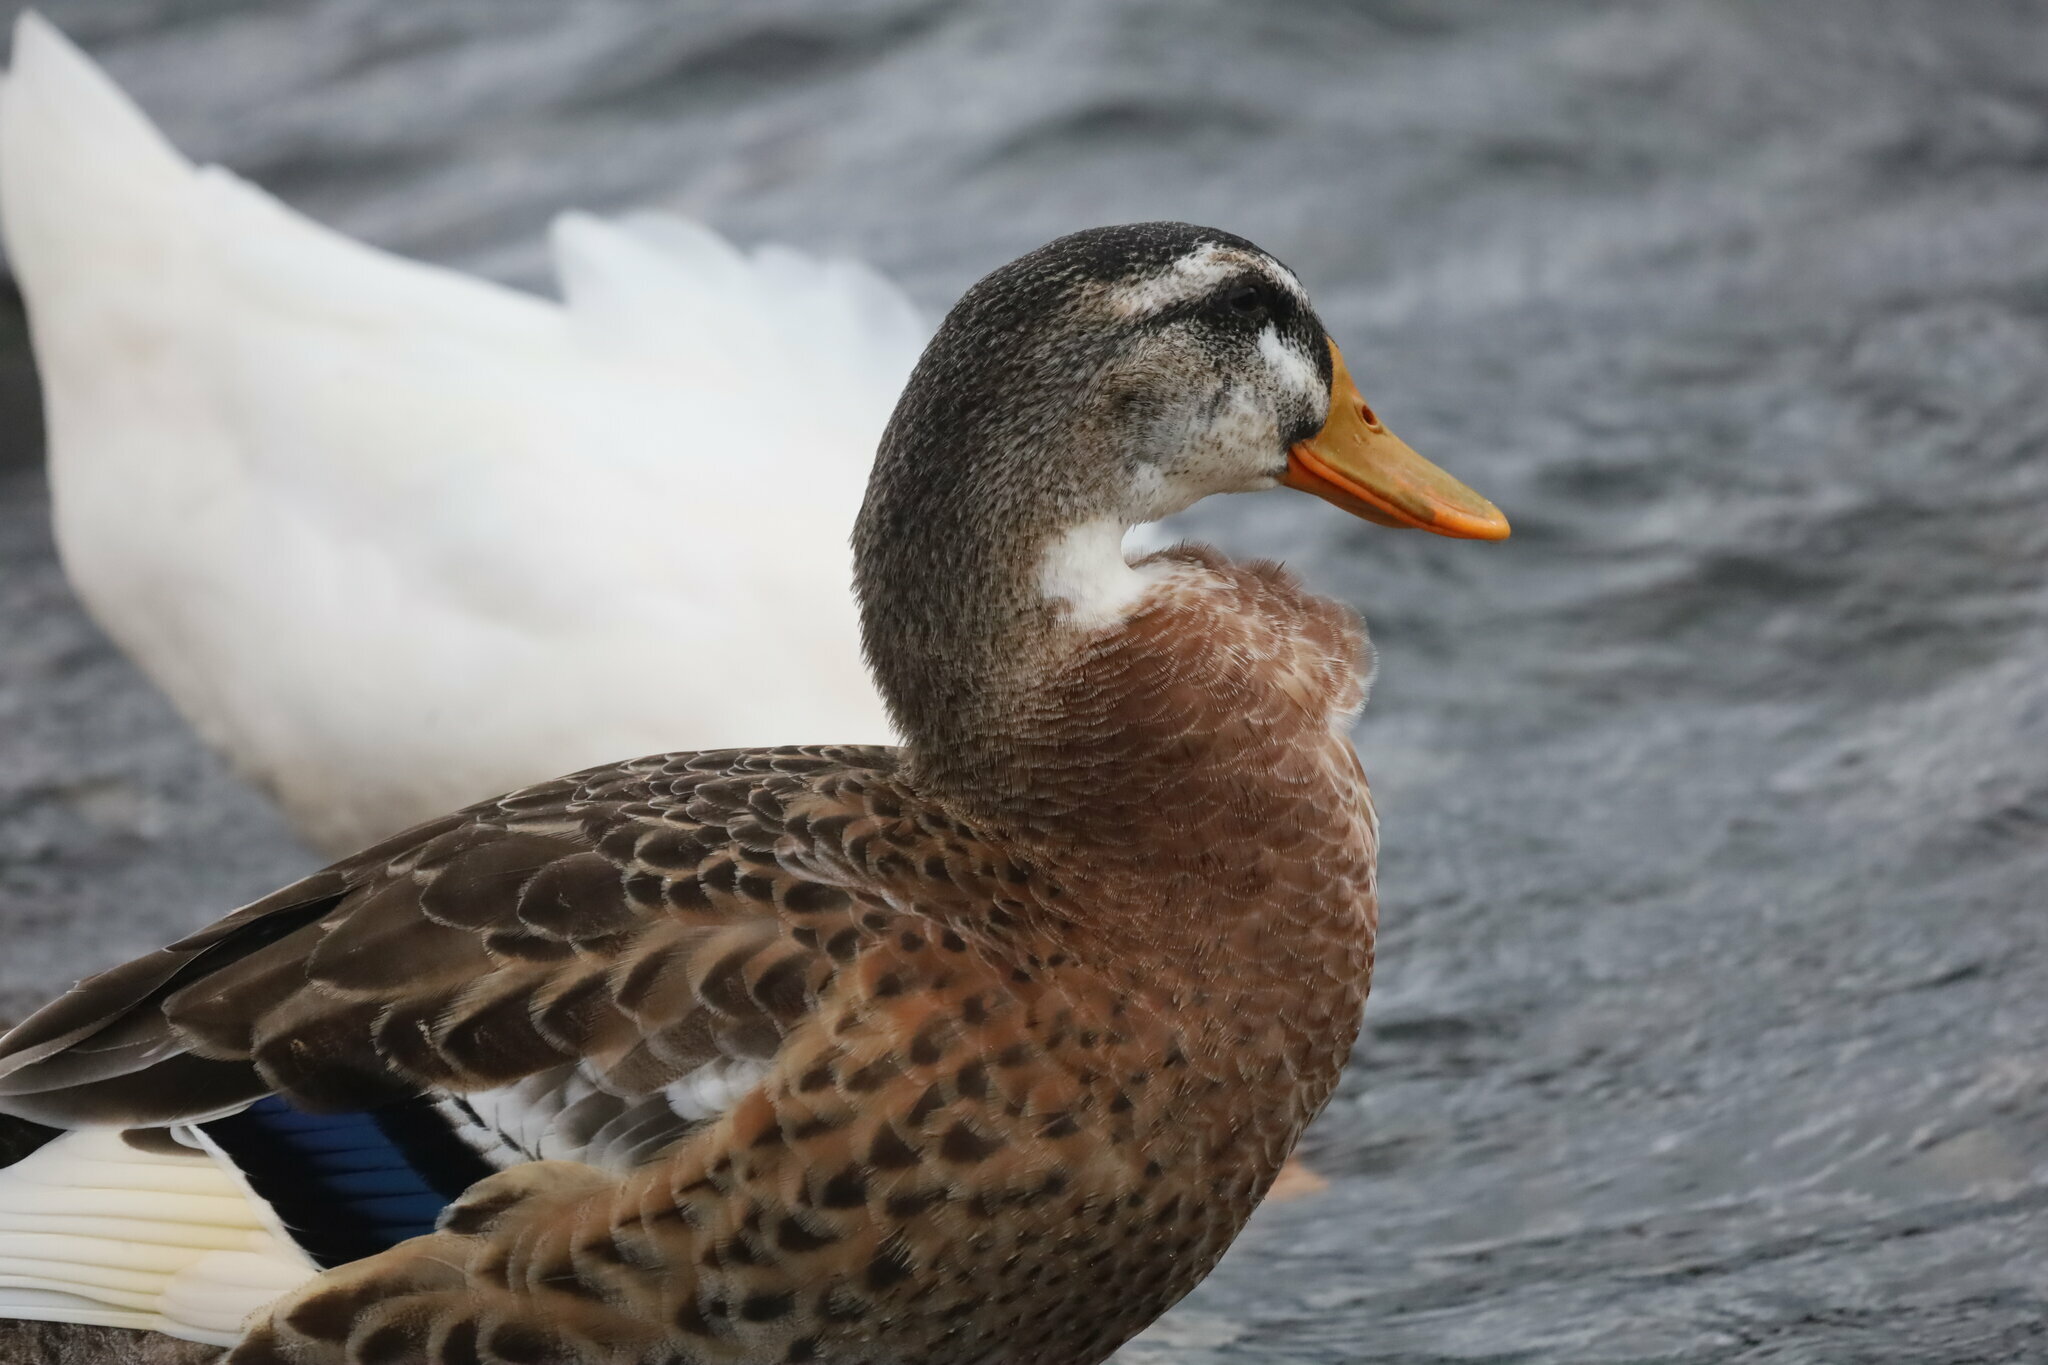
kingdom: Animalia
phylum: Chordata
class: Aves
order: Anseriformes
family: Anatidae
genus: Anas
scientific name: Anas platyrhynchos
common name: Mallard
